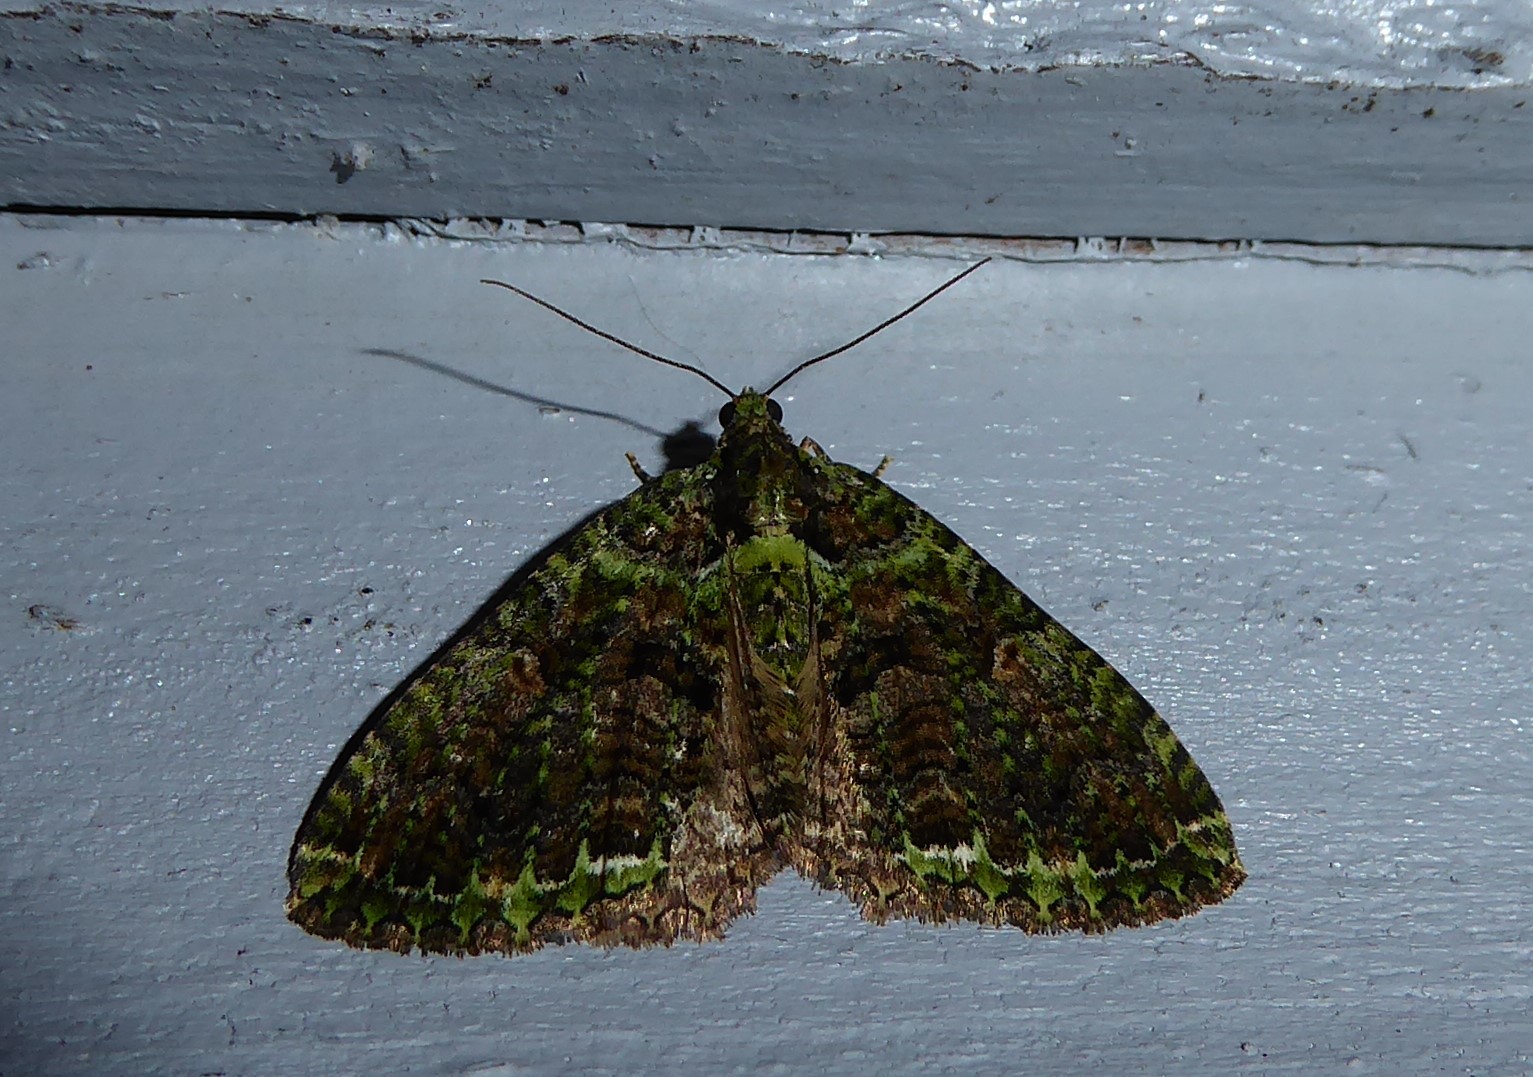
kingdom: Animalia
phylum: Arthropoda
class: Insecta
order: Lepidoptera
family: Geometridae
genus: Austrocidaria
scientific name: Austrocidaria similata
